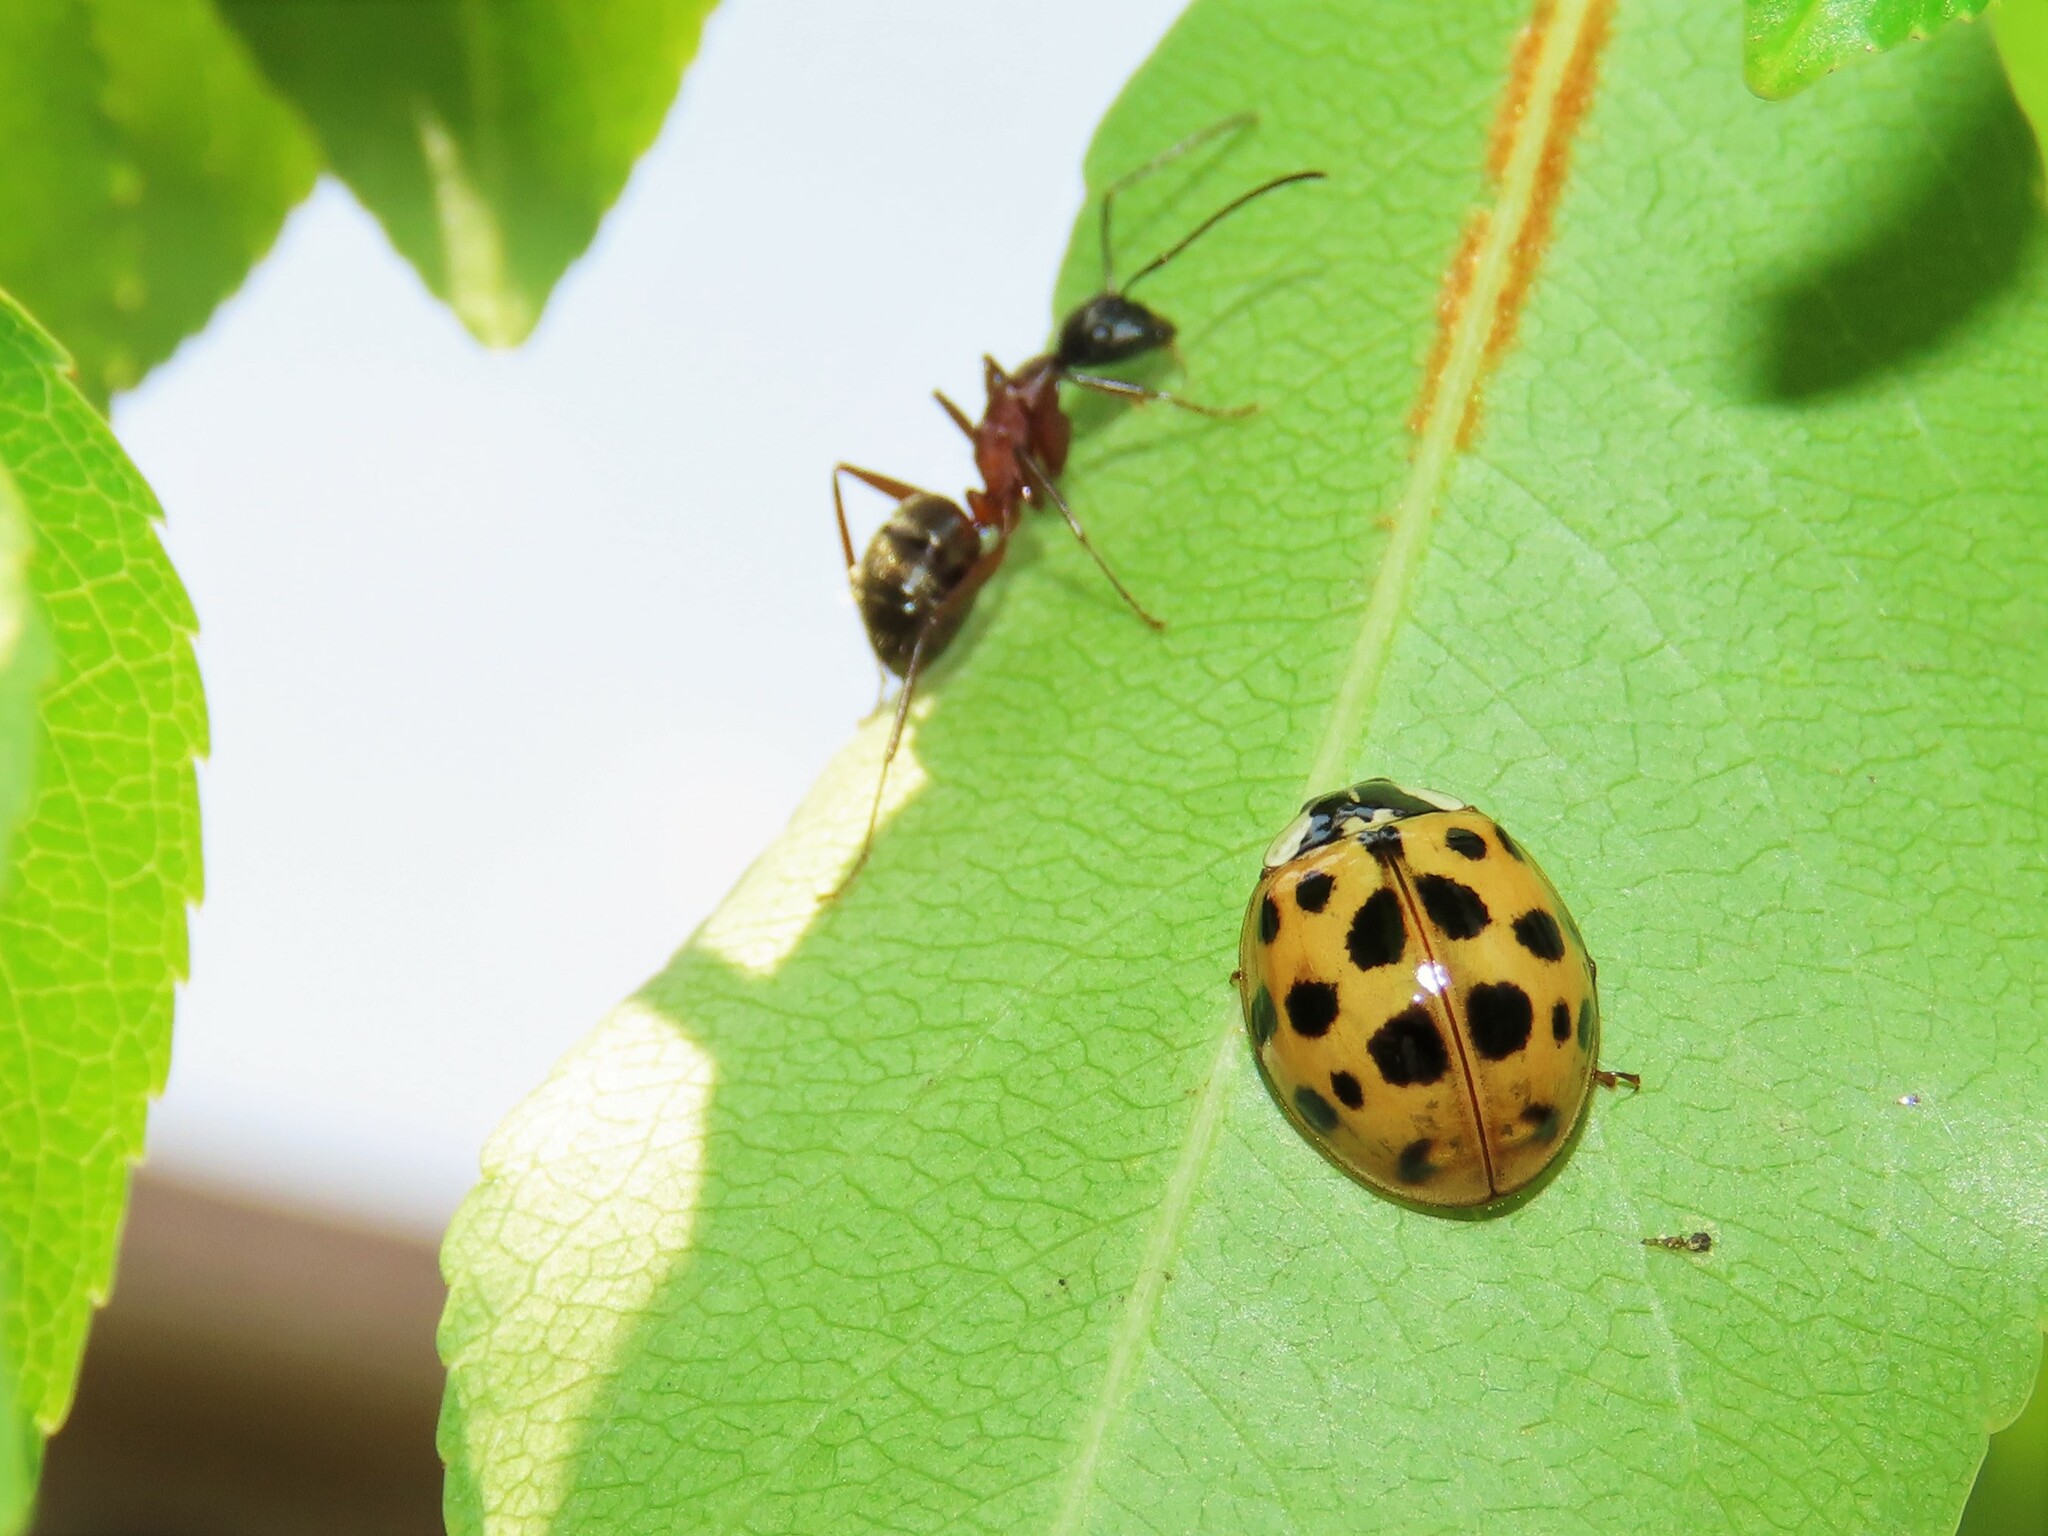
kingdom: Animalia
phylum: Arthropoda
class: Insecta
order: Coleoptera
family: Coccinellidae
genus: Harmonia
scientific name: Harmonia axyridis
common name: Harlequin ladybird
